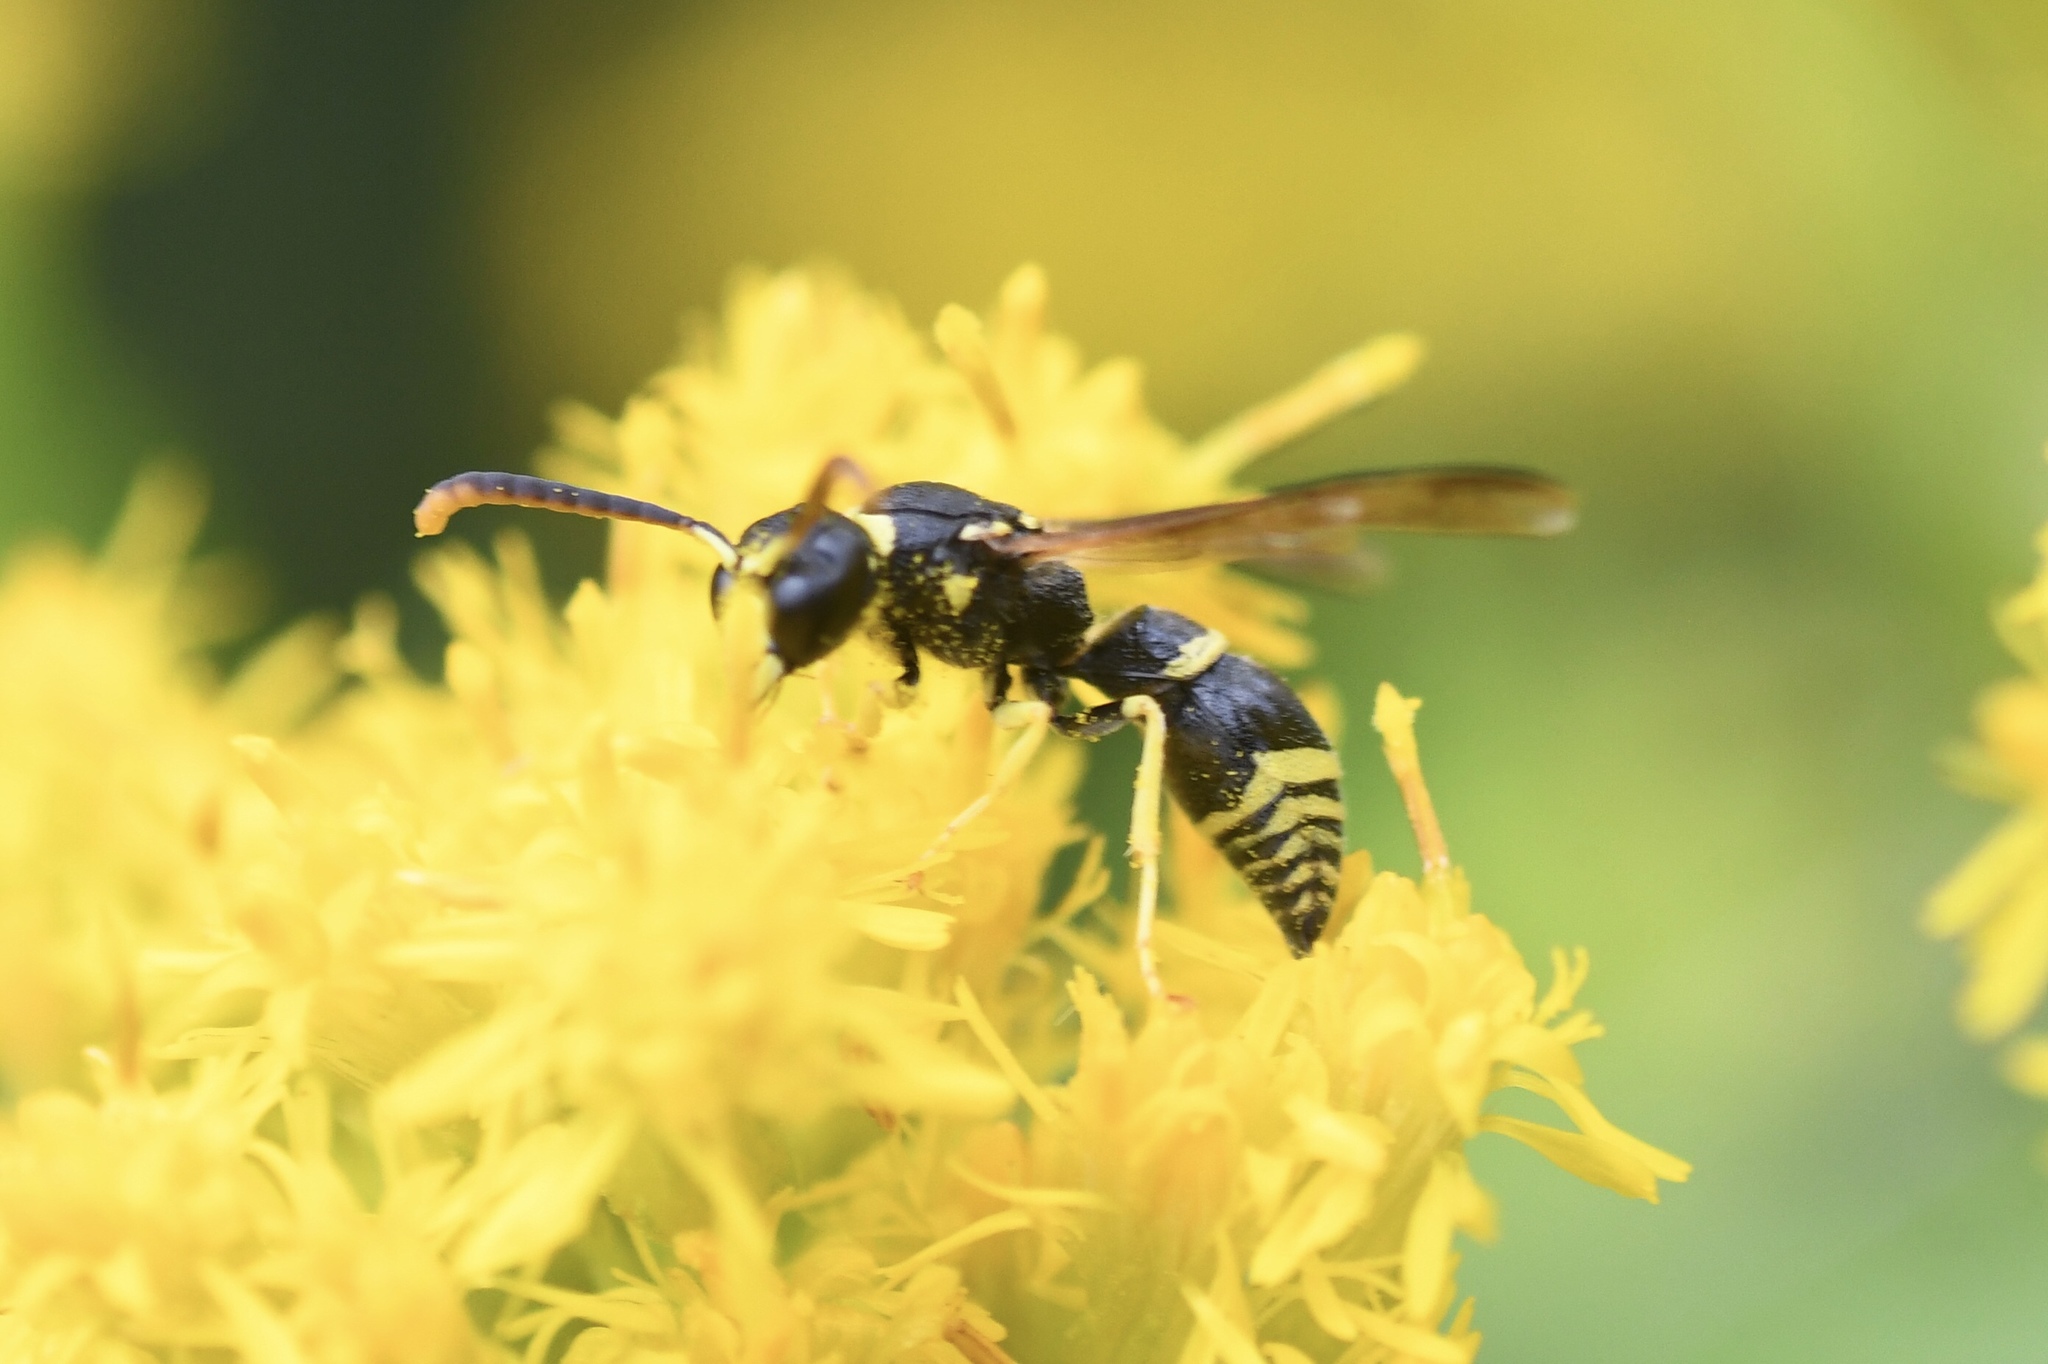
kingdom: Animalia
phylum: Arthropoda
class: Insecta
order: Hymenoptera
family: Vespidae
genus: Ancistrocerus
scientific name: Ancistrocerus adiabatus
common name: Bramble mason wasp
